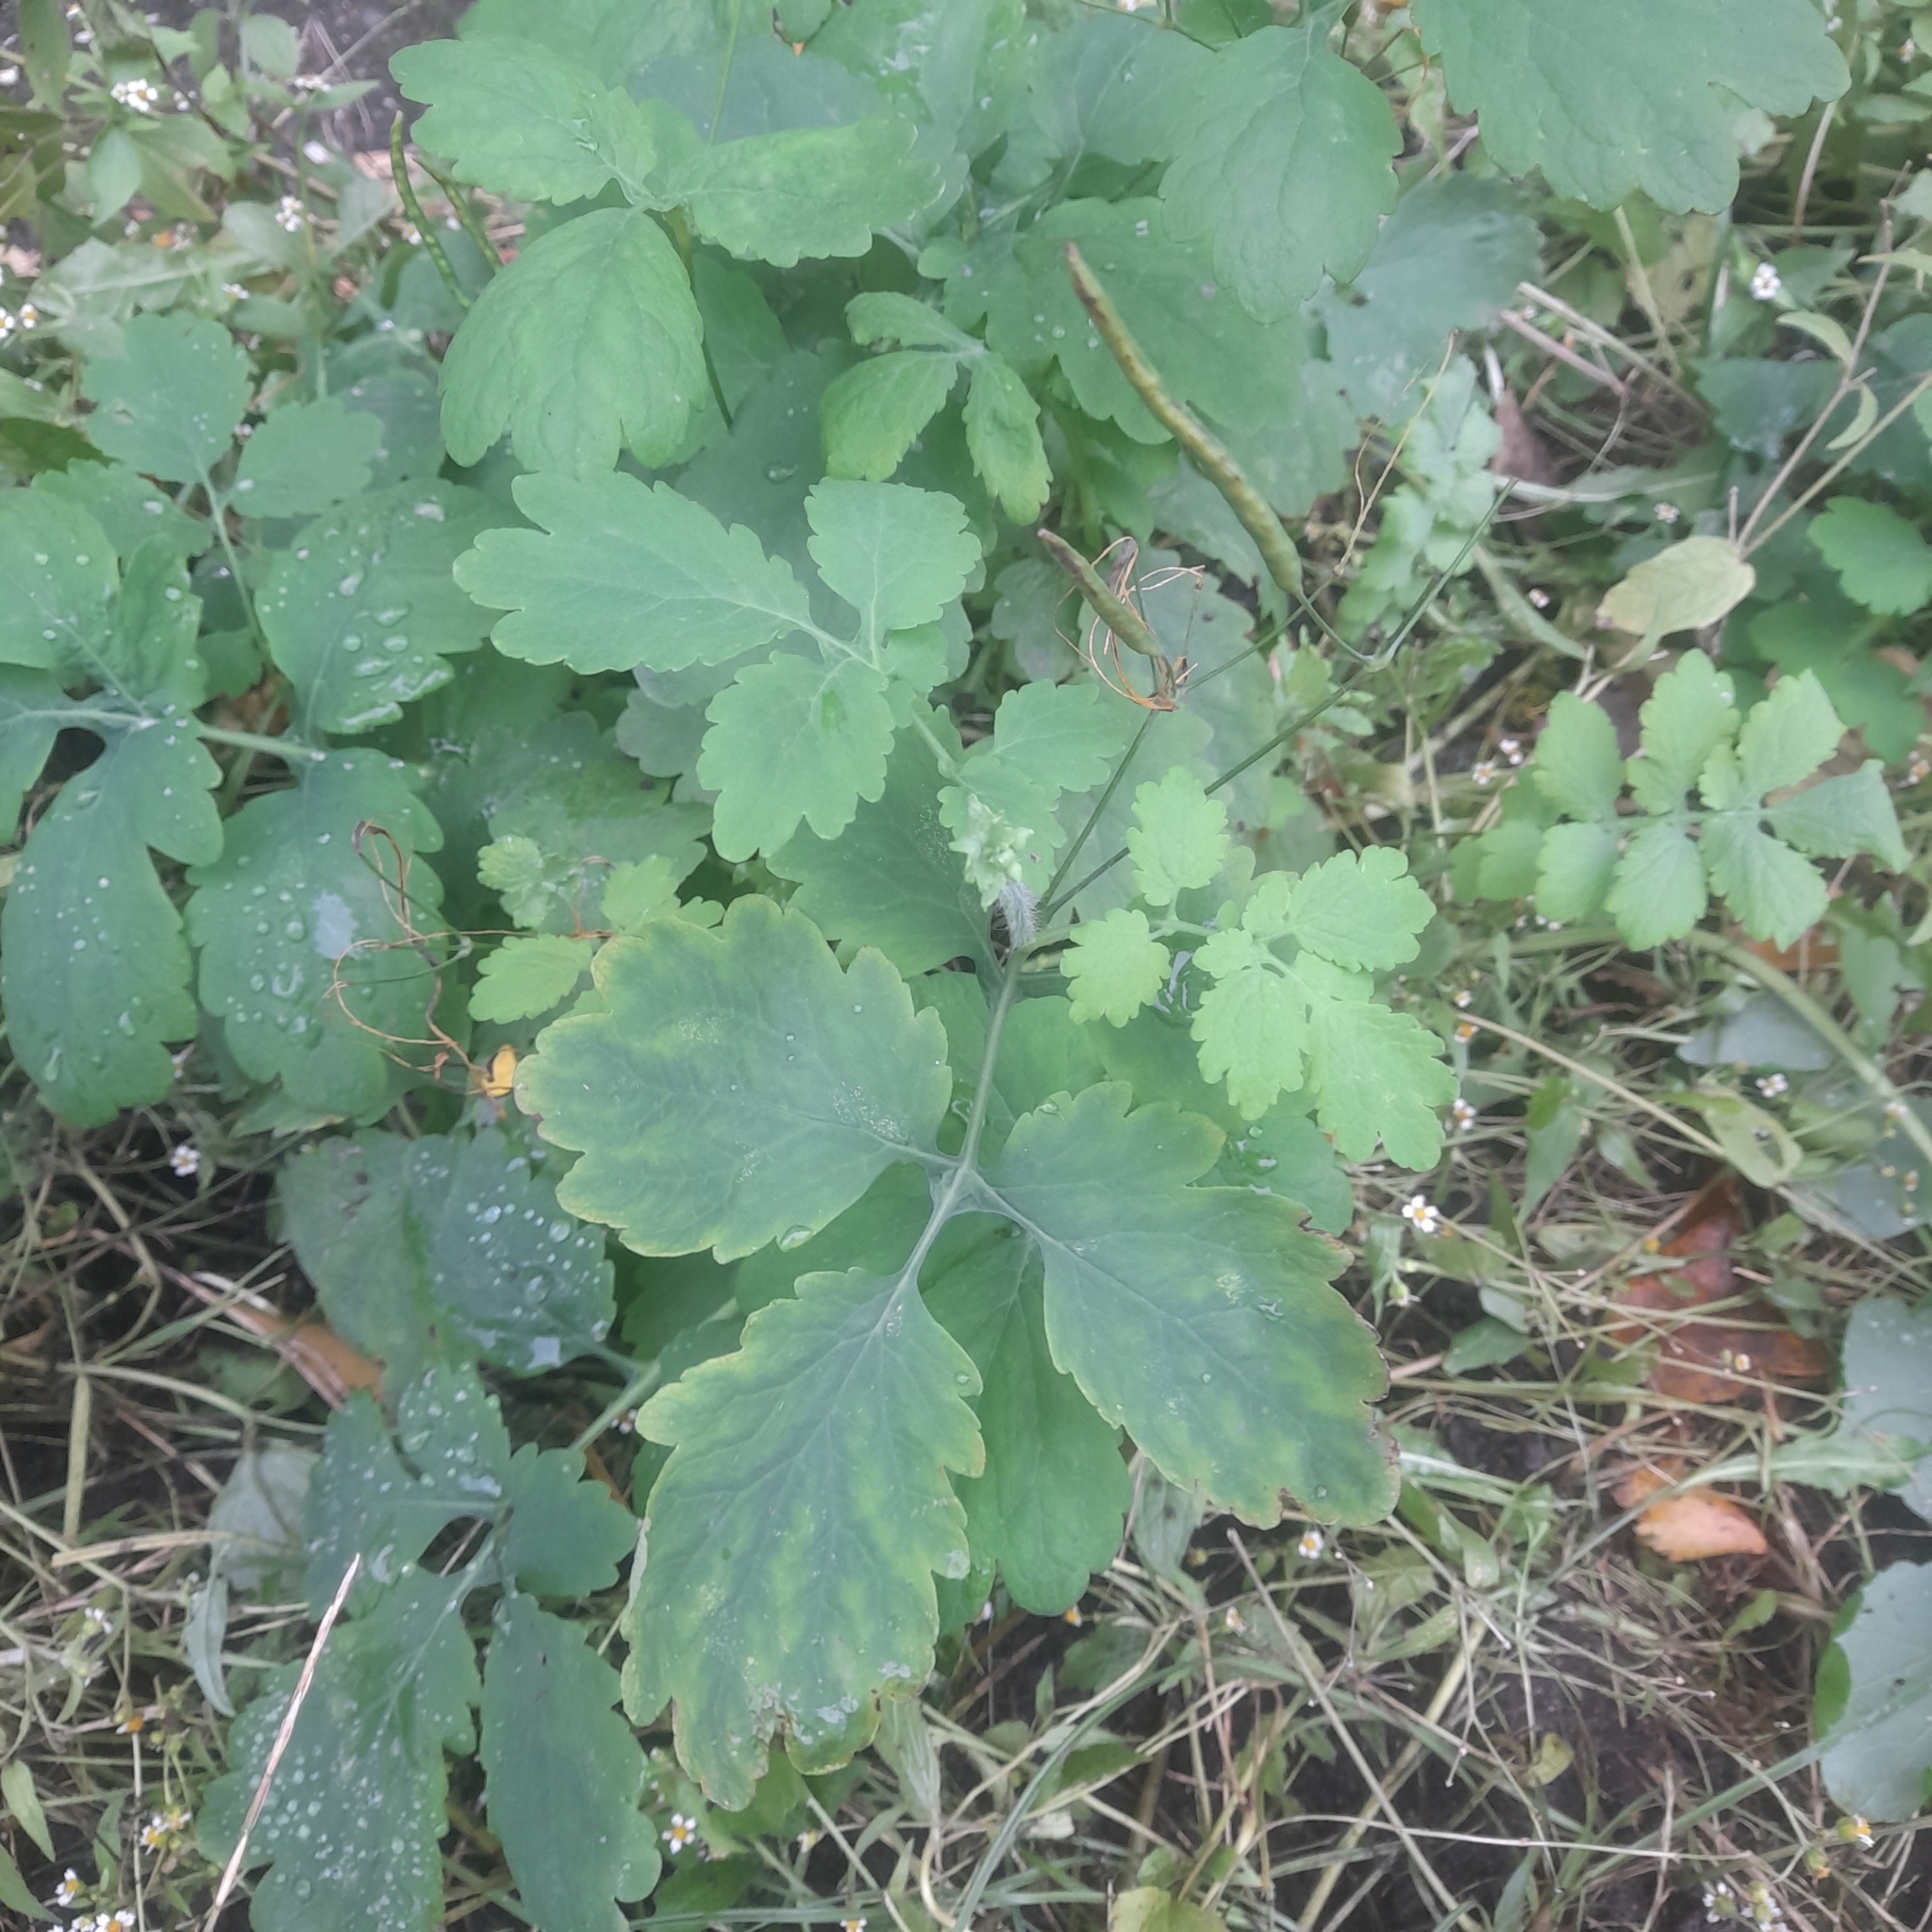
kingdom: Plantae
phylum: Tracheophyta
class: Magnoliopsida
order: Ranunculales
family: Papaveraceae
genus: Chelidonium
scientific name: Chelidonium majus
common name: Greater celandine
